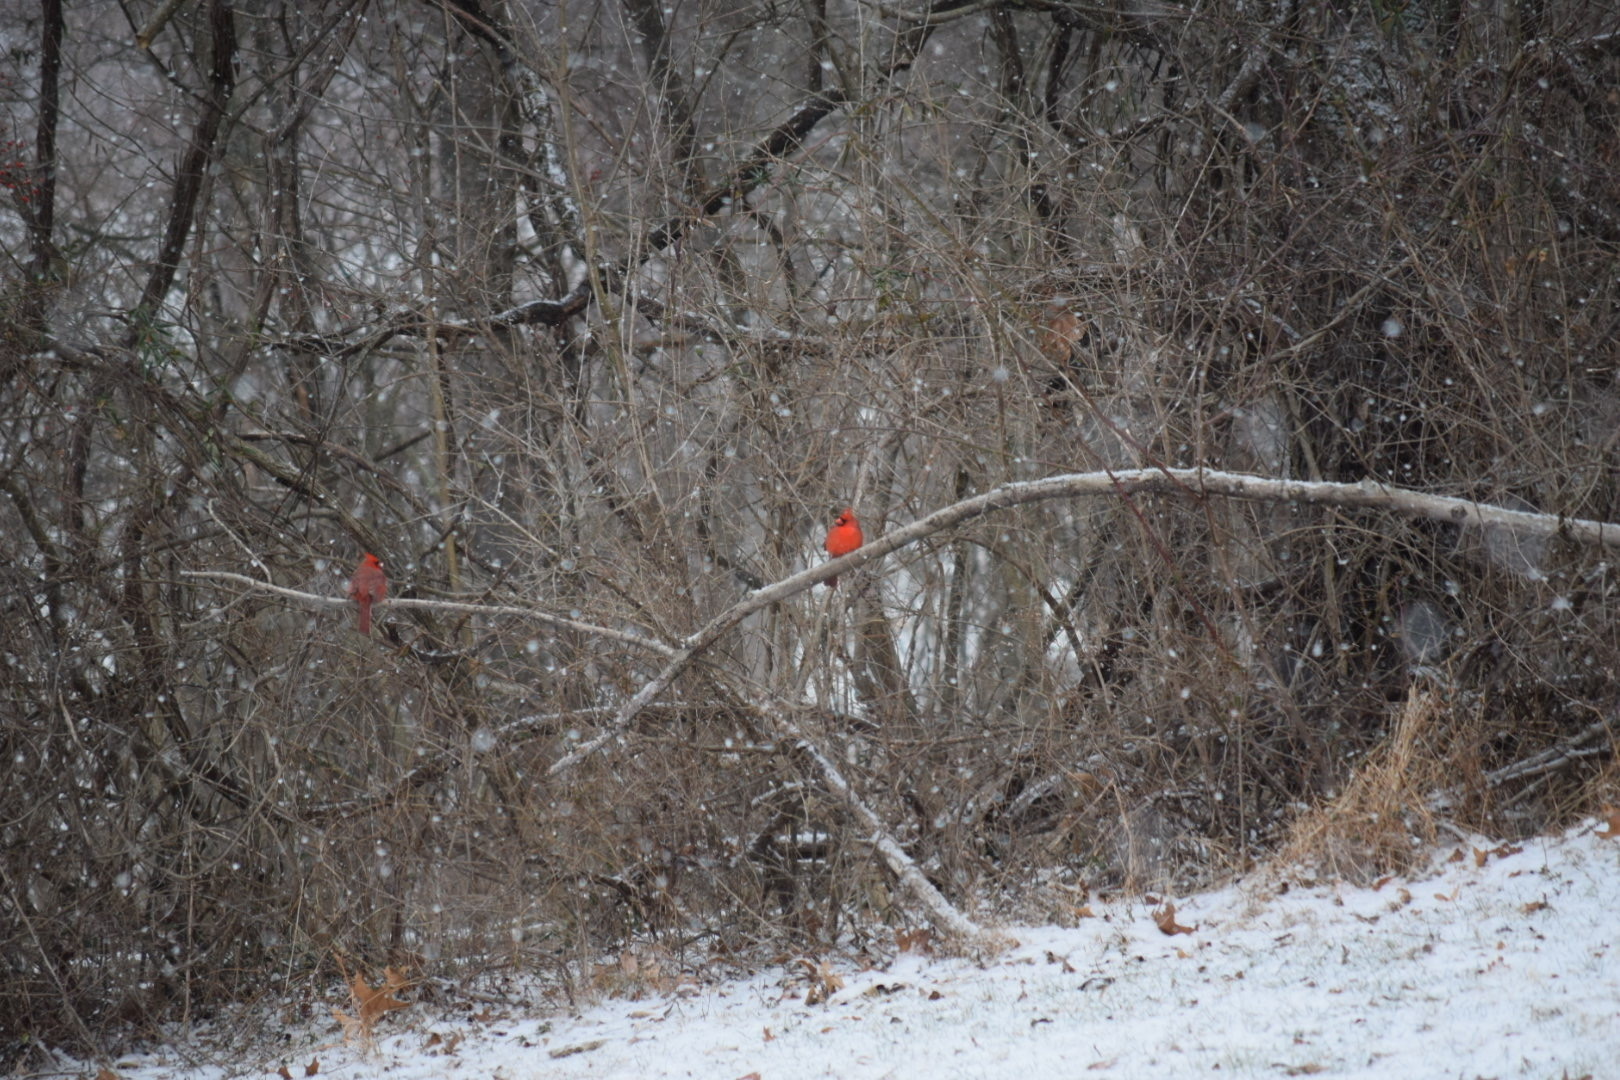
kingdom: Animalia
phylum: Chordata
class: Aves
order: Passeriformes
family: Cardinalidae
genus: Cardinalis
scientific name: Cardinalis cardinalis
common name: Northern cardinal
